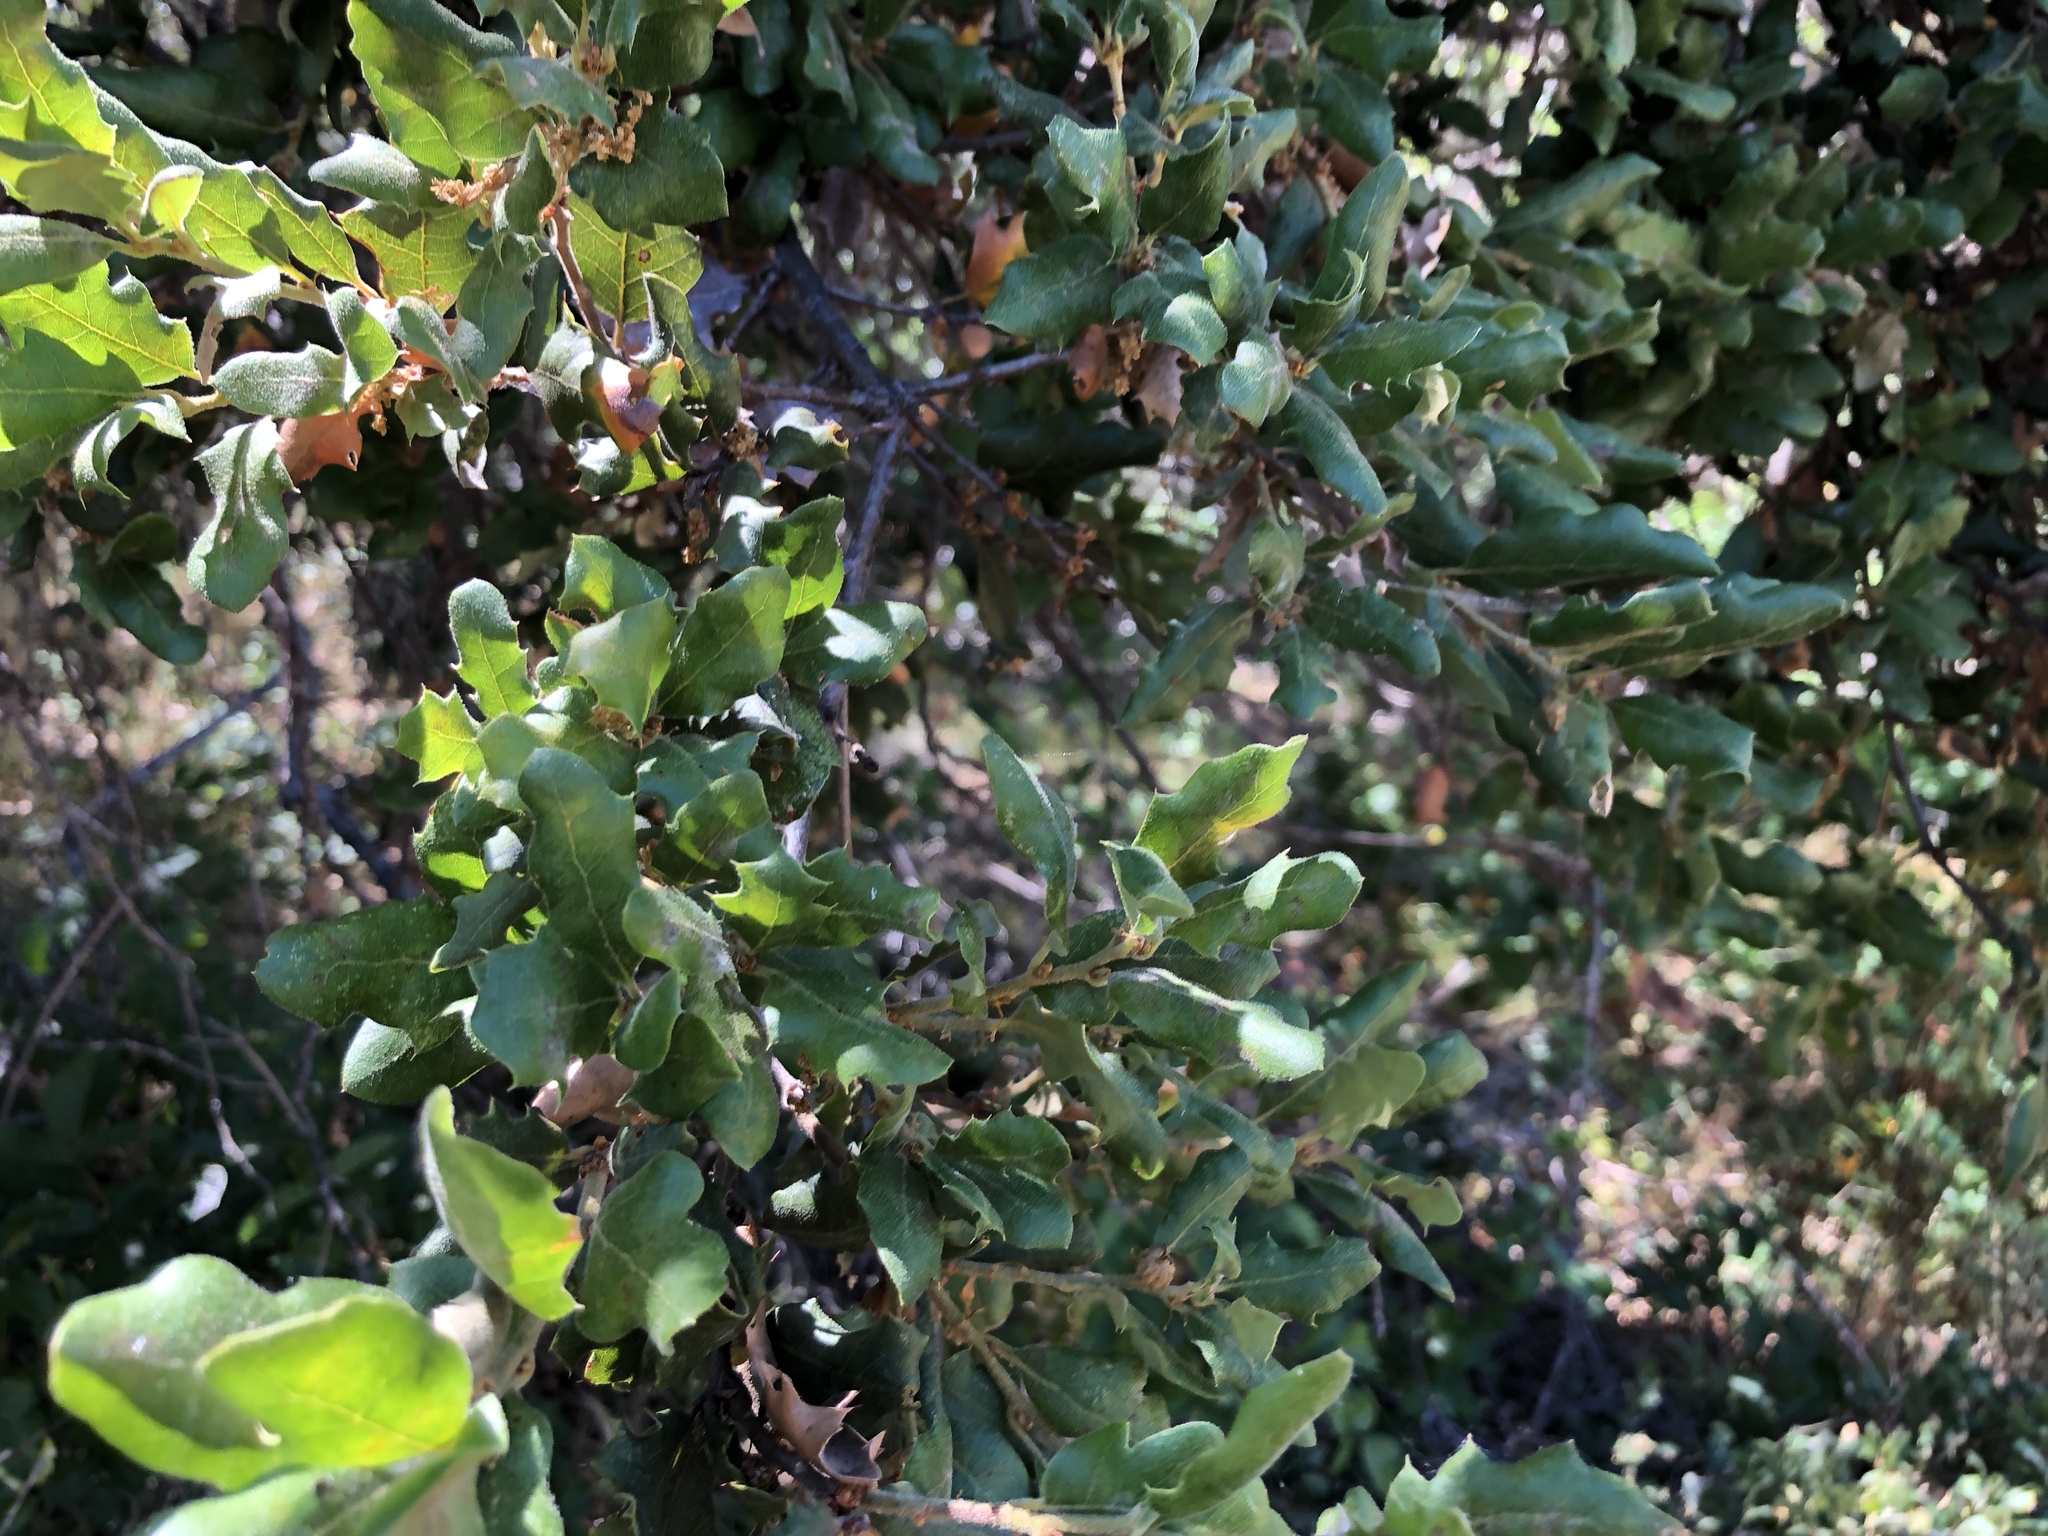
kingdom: Plantae
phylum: Tracheophyta
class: Magnoliopsida
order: Fagales
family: Fagaceae
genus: Quercus
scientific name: Quercus durata
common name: Leather oak
